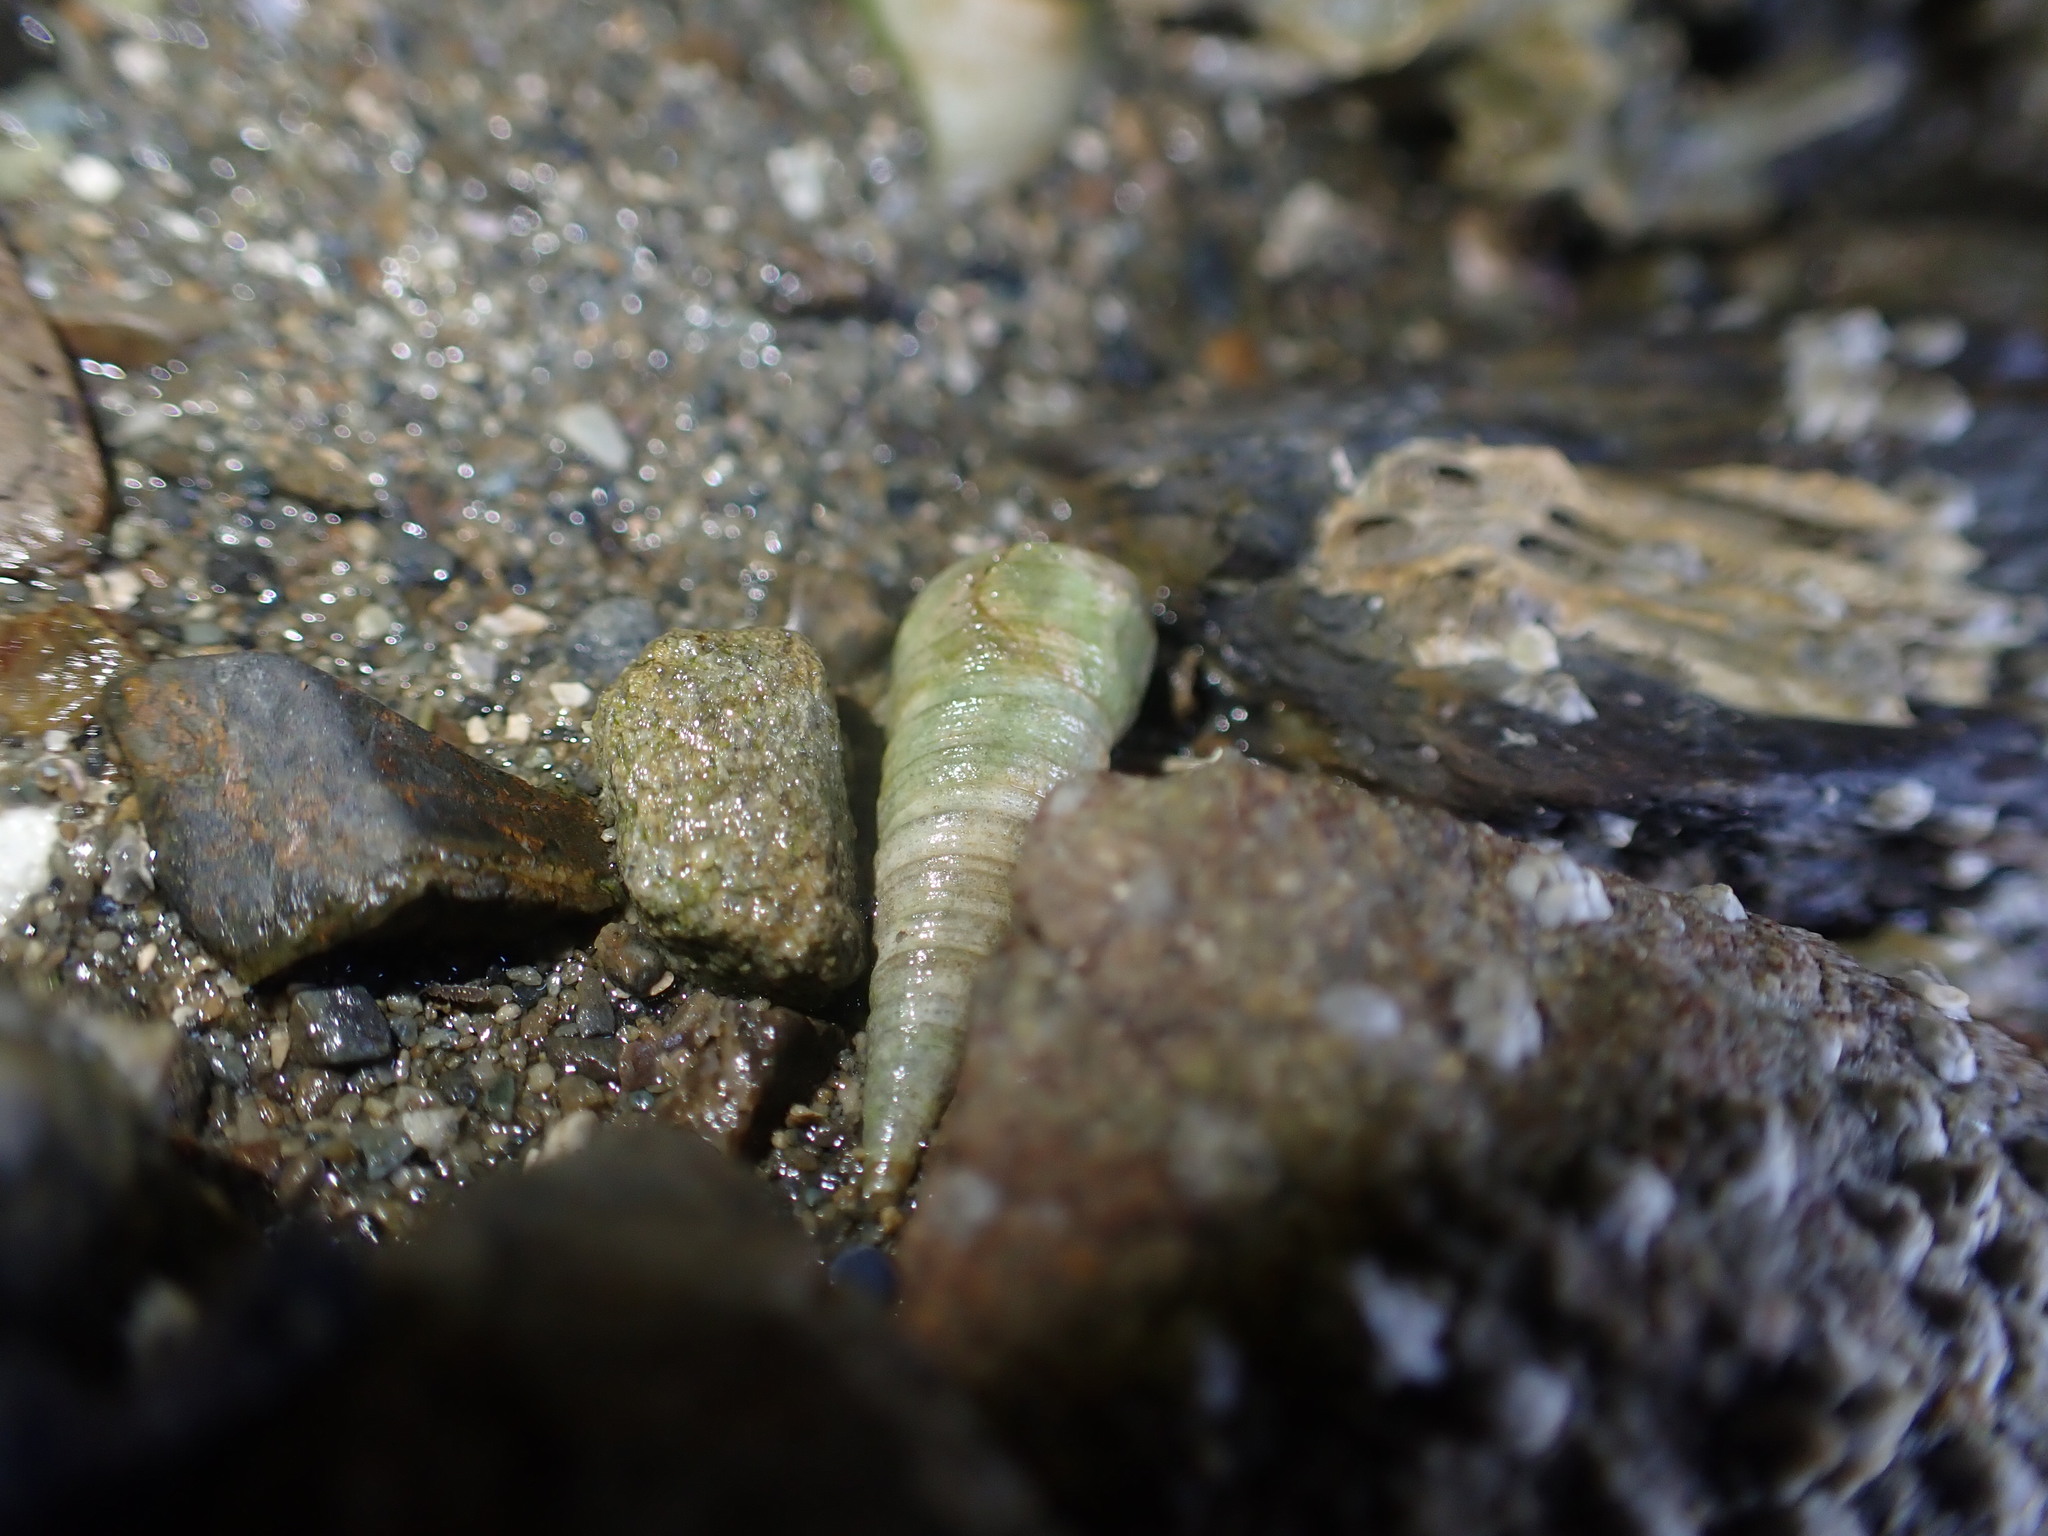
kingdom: Animalia
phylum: Mollusca
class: Gastropoda
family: Turritellidae
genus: Maoricolpus
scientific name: Maoricolpus roseus
